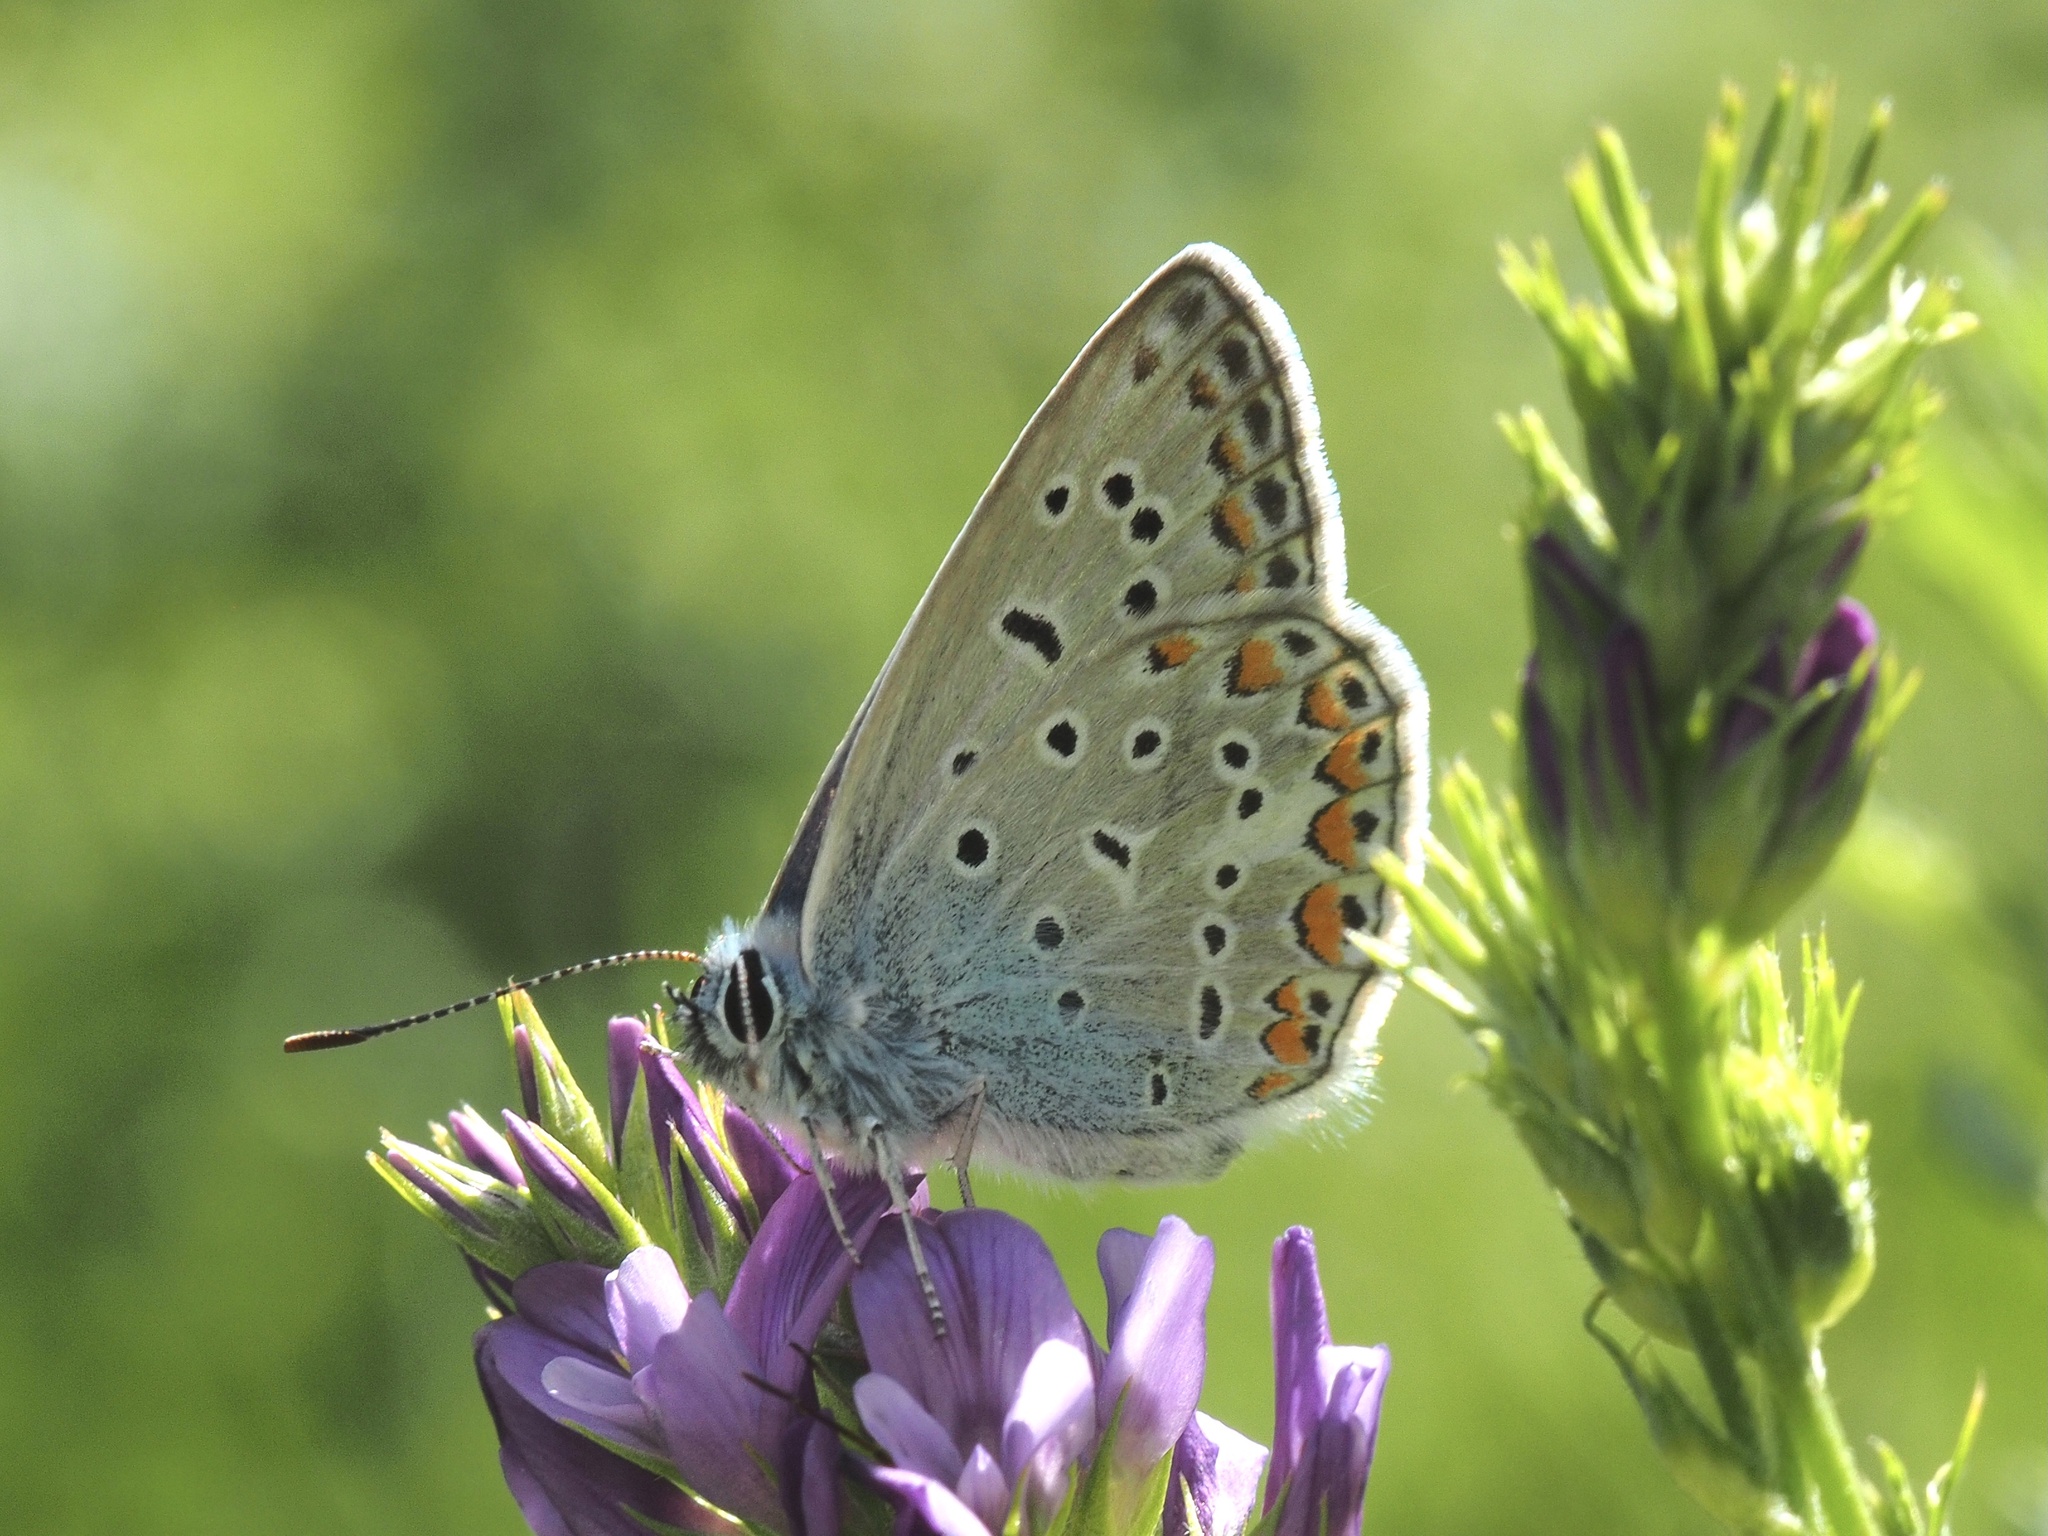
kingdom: Animalia
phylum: Arthropoda
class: Insecta
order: Lepidoptera
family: Lycaenidae
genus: Polyommatus
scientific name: Polyommatus icarus
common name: Common blue
